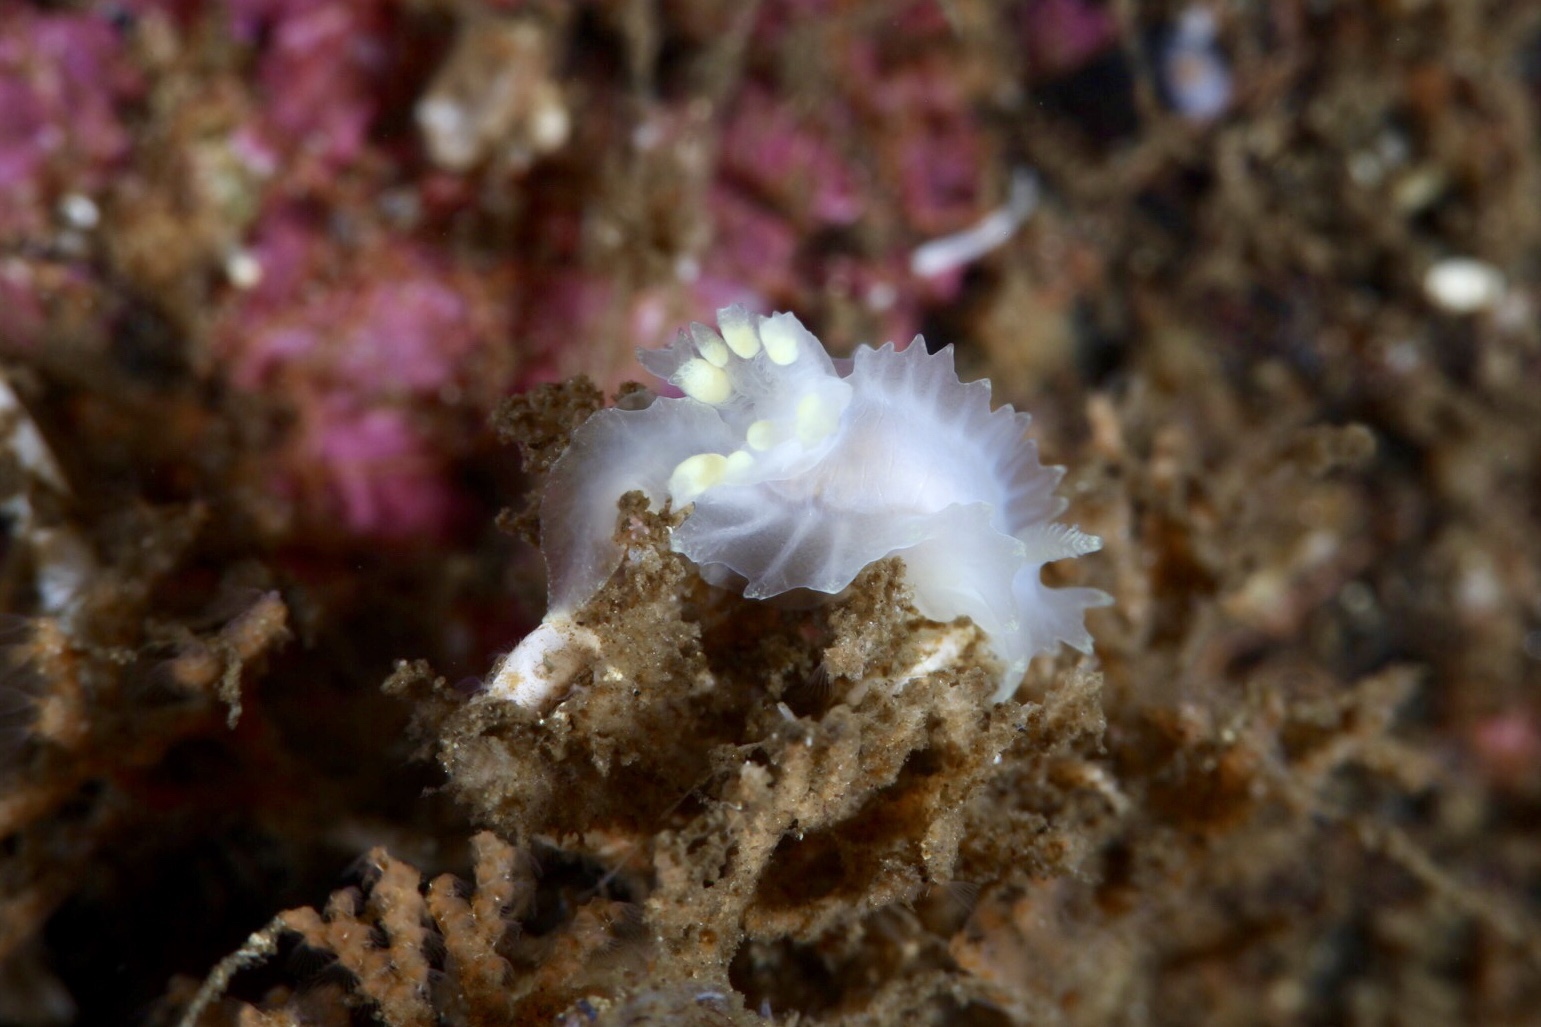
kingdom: Animalia
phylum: Mollusca
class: Gastropoda
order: Nudibranchia
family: Goniodorididae
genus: Lophodoris
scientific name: Lophodoris danielsseni
